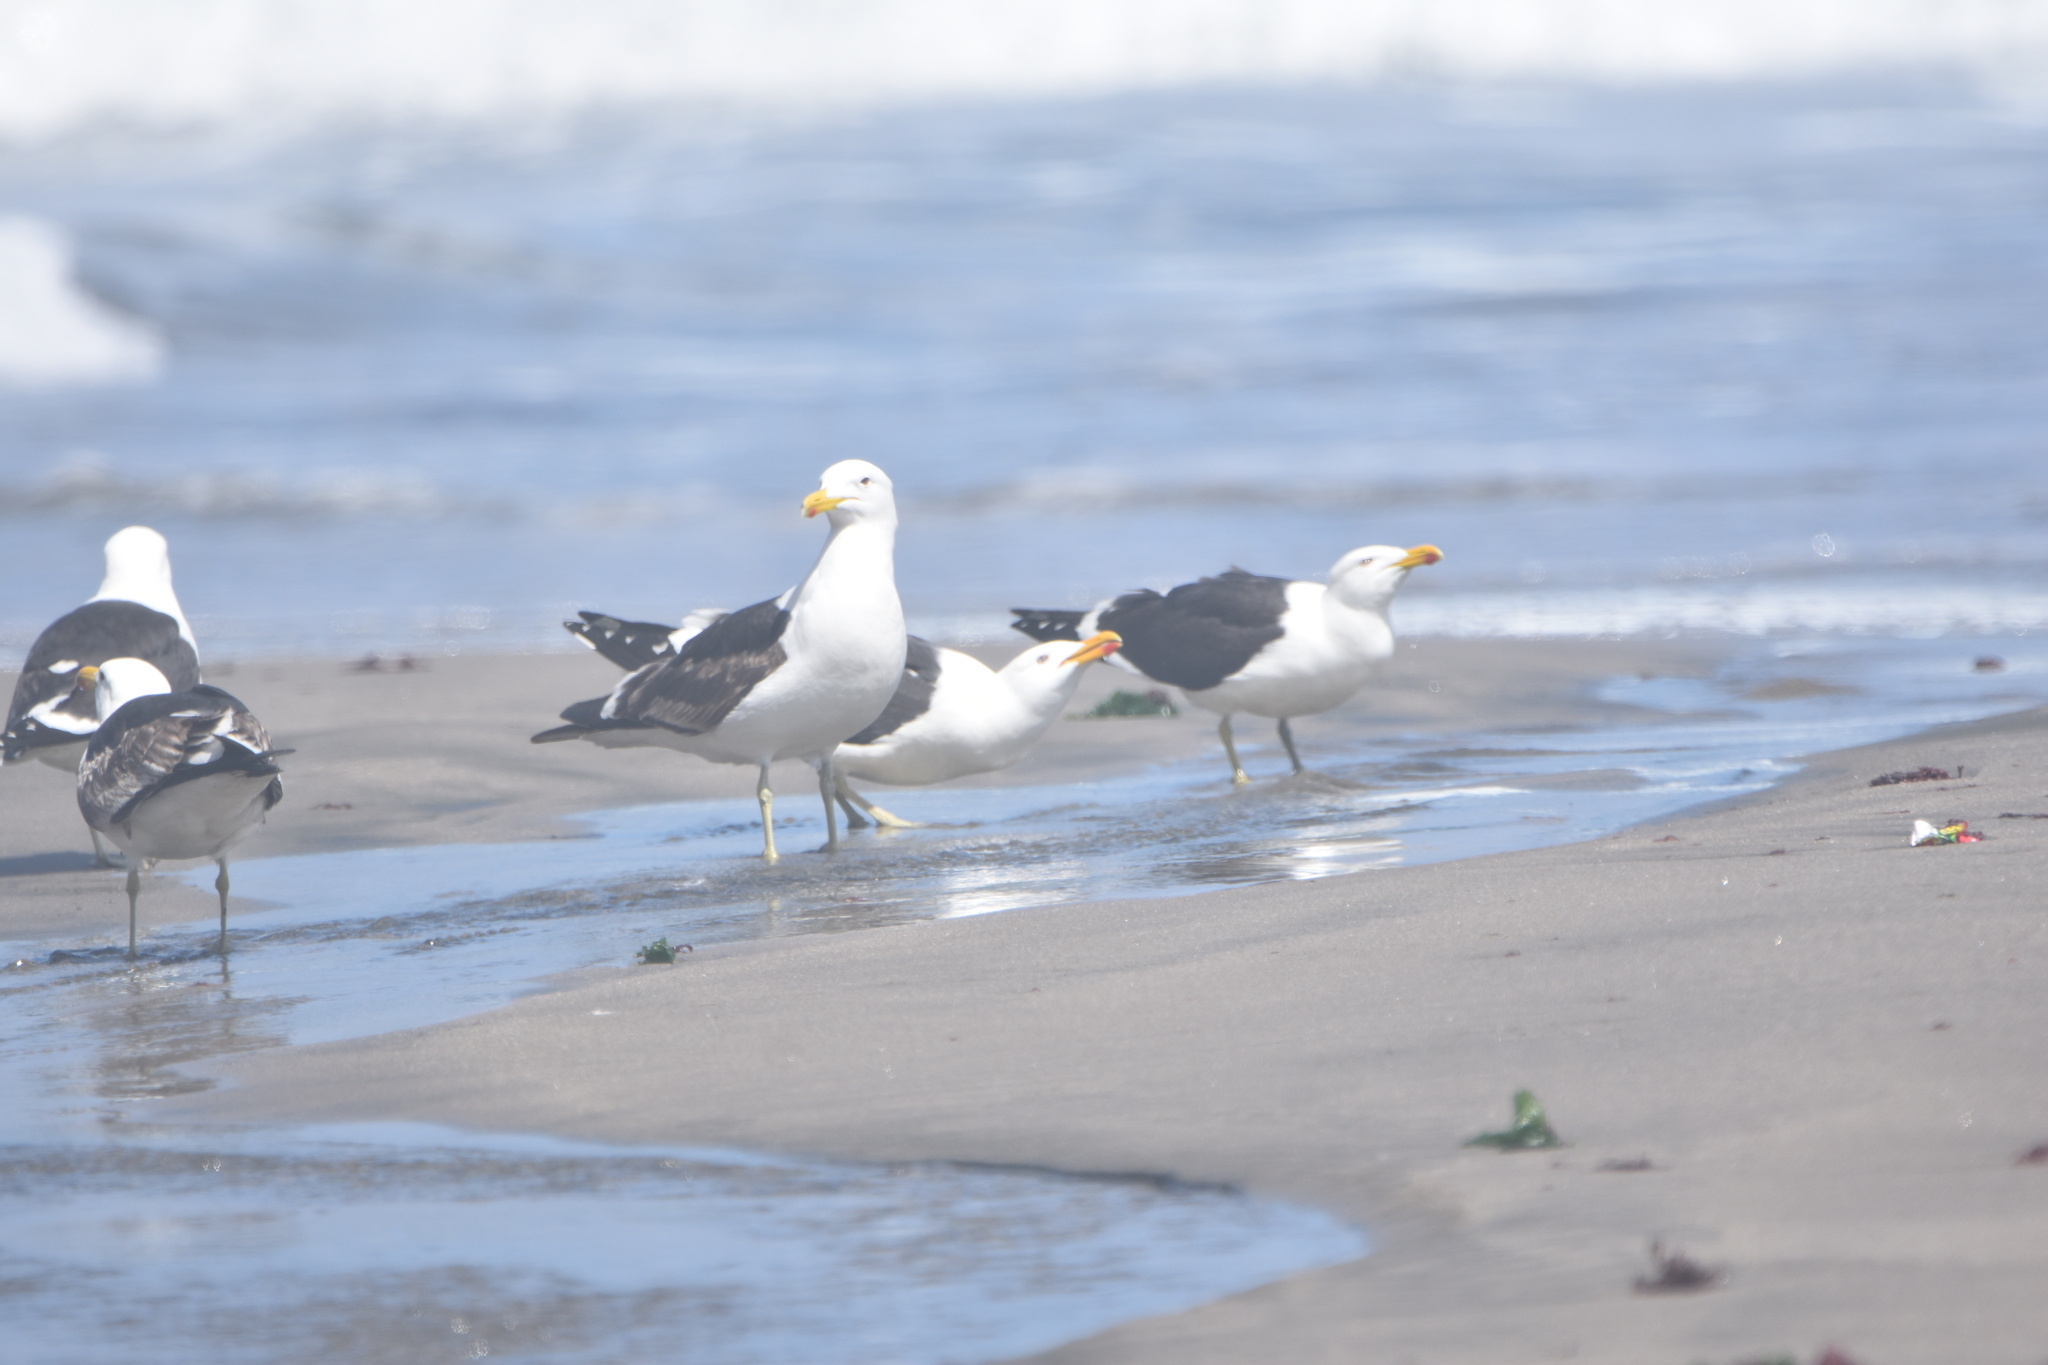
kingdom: Animalia
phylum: Chordata
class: Aves
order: Charadriiformes
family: Laridae
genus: Larus
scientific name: Larus dominicanus
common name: Kelp gull
